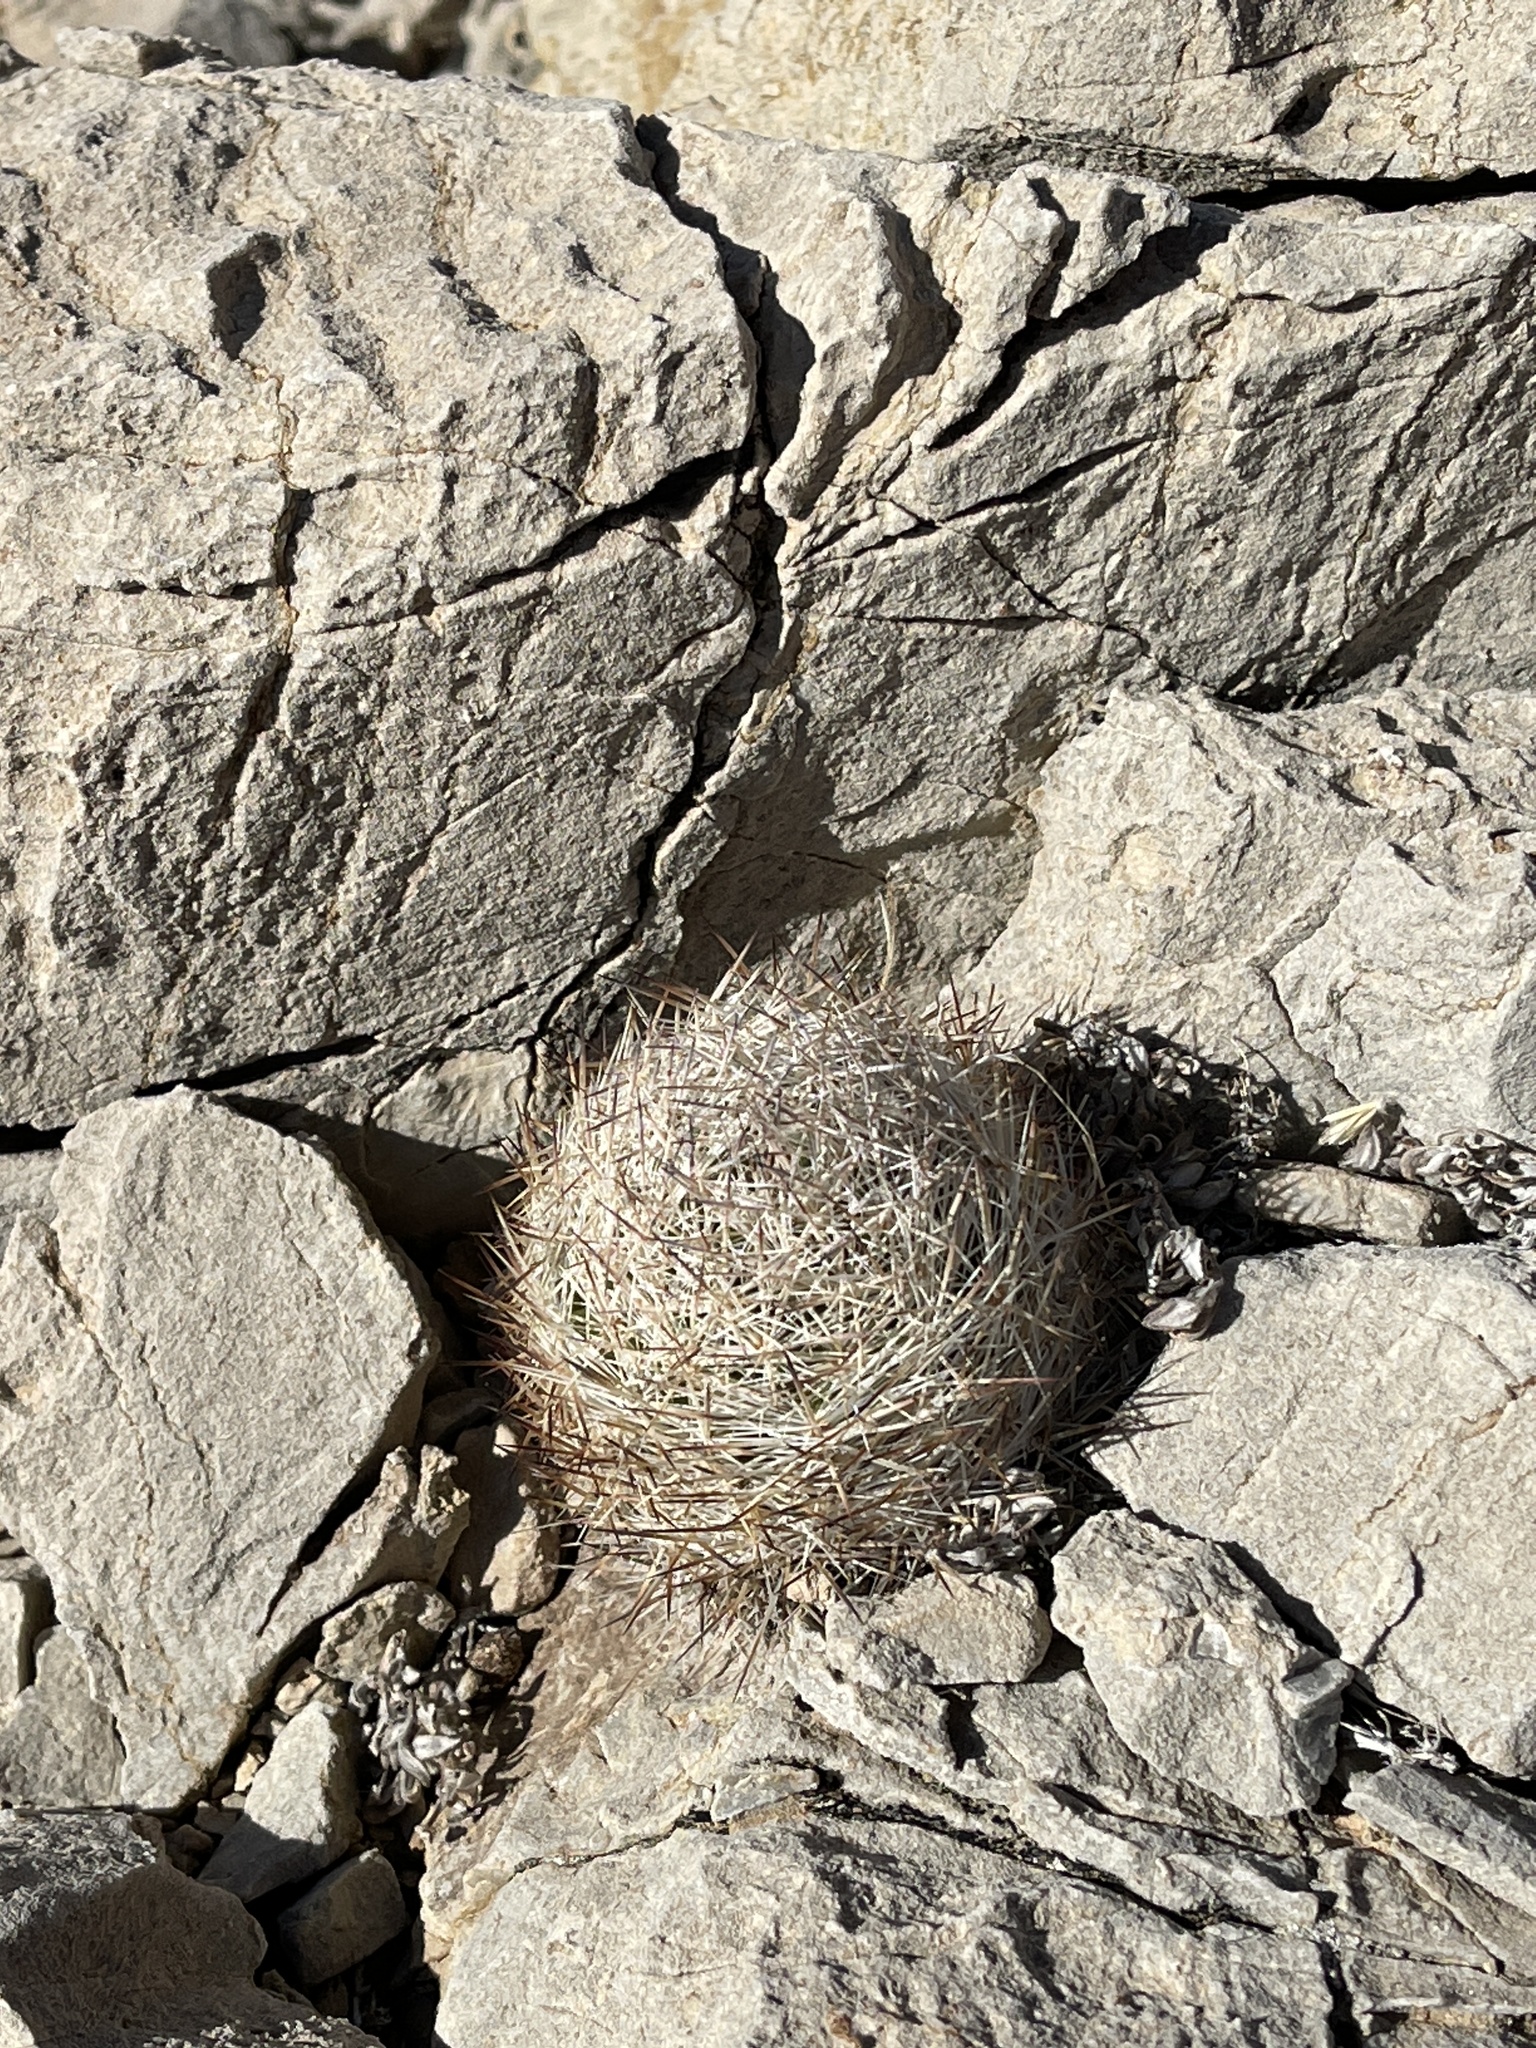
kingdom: Plantae
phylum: Tracheophyta
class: Magnoliopsida
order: Caryophyllales
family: Cactaceae
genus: Pelecyphora
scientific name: Pelecyphora dasyacantha
